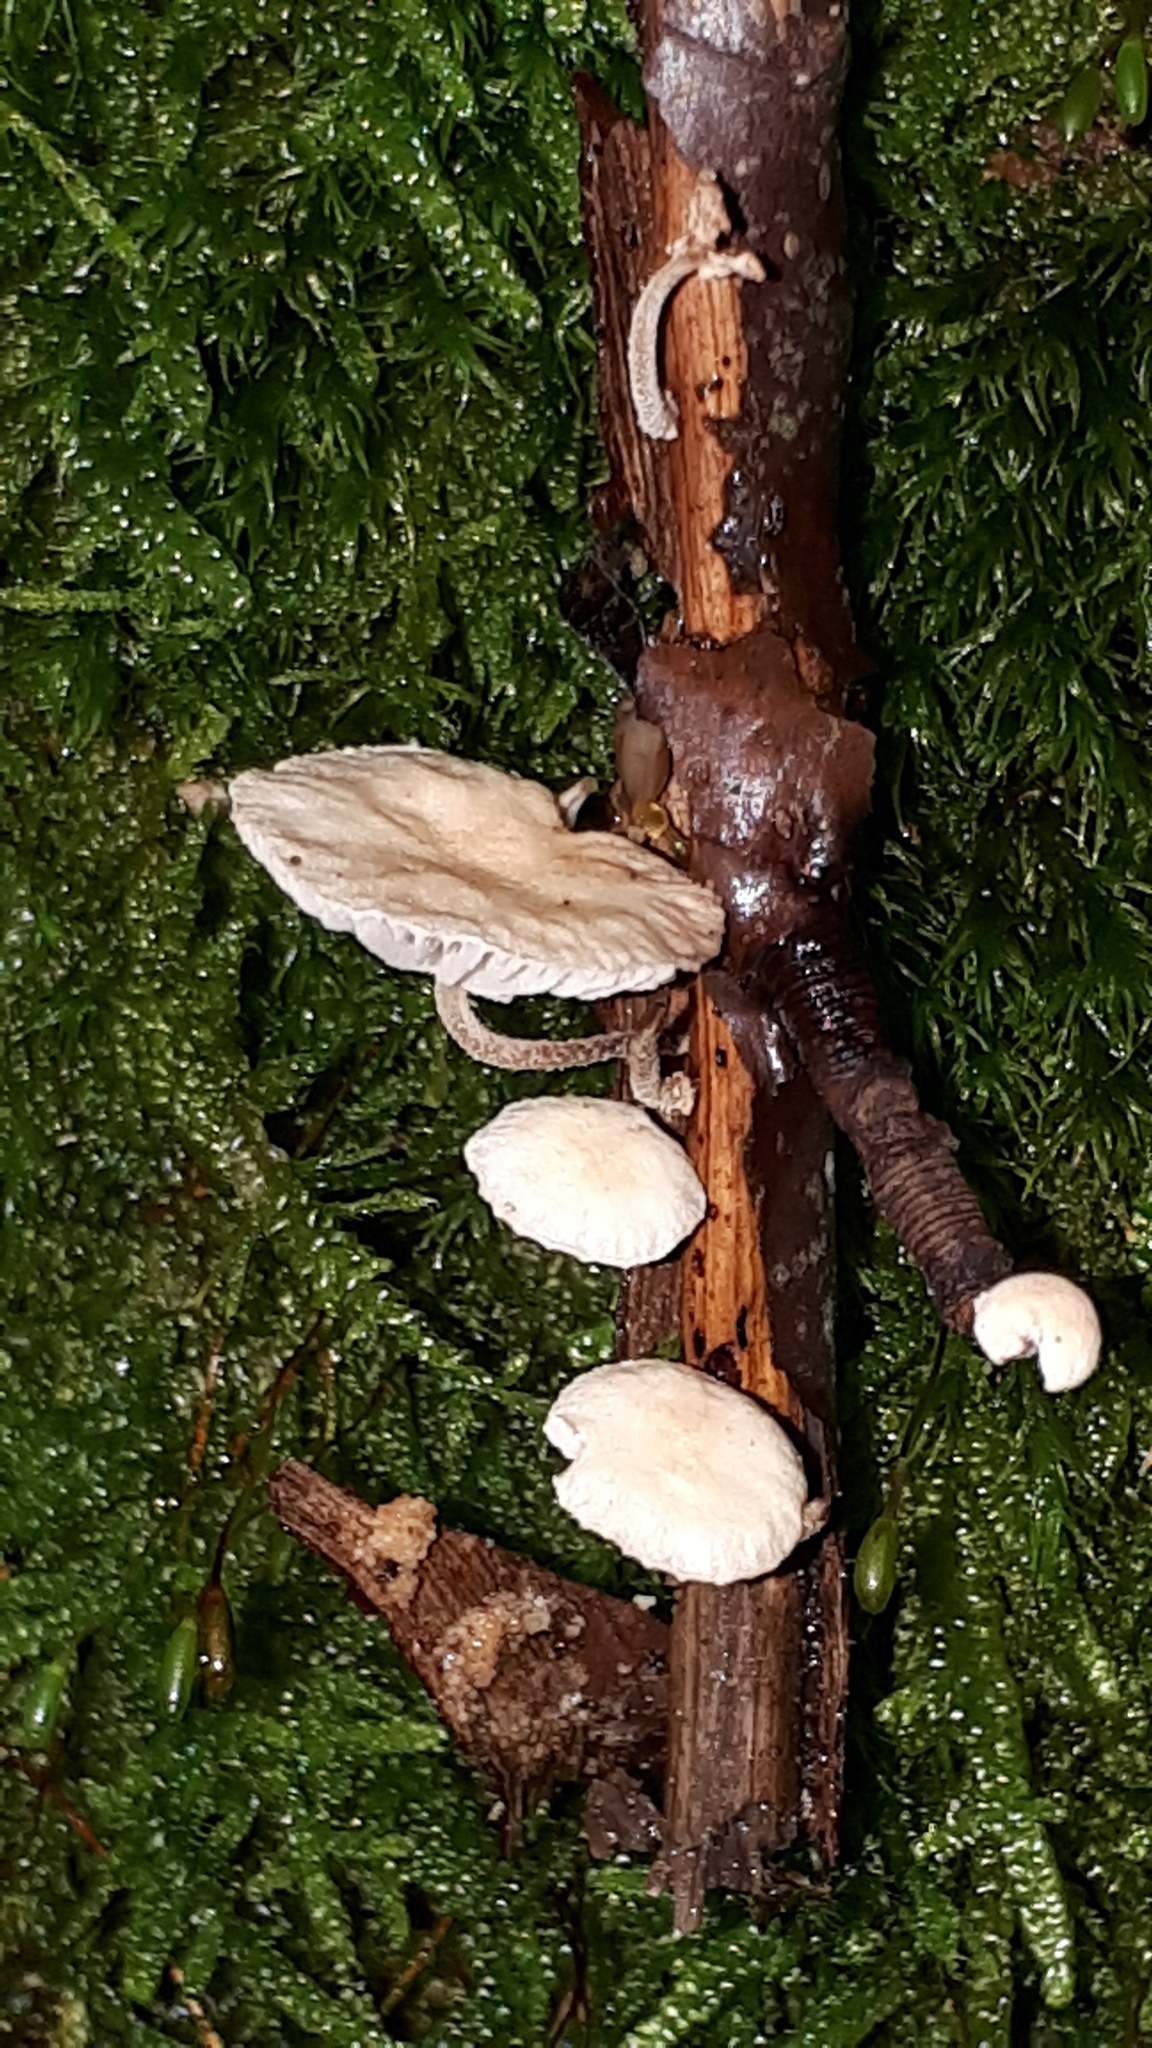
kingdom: Fungi
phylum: Basidiomycota
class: Agaricomycetes
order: Agaricales
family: Omphalotaceae
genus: Collybiopsis
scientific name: Collybiopsis ramealis
